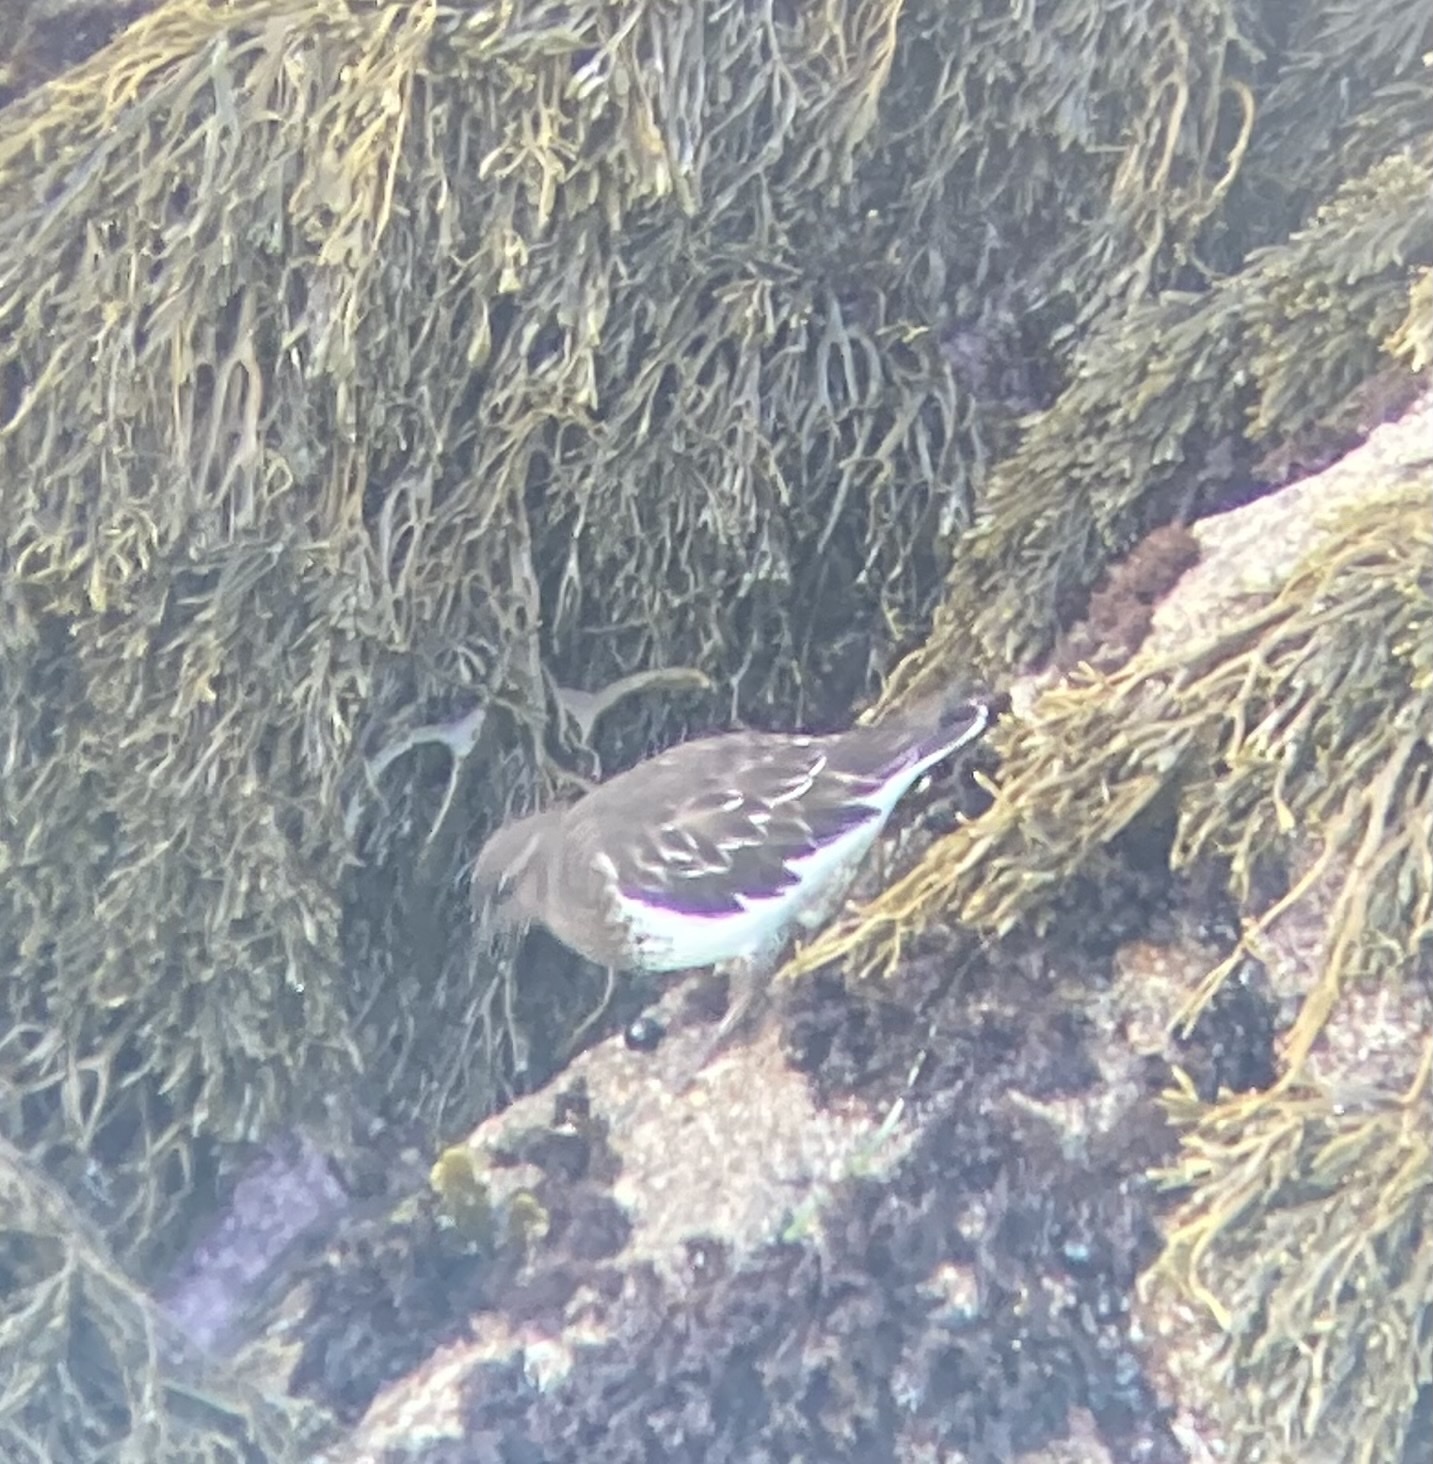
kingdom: Animalia
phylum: Chordata
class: Aves
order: Charadriiformes
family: Scolopacidae
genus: Arenaria
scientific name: Arenaria melanocephala
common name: Black turnstone
